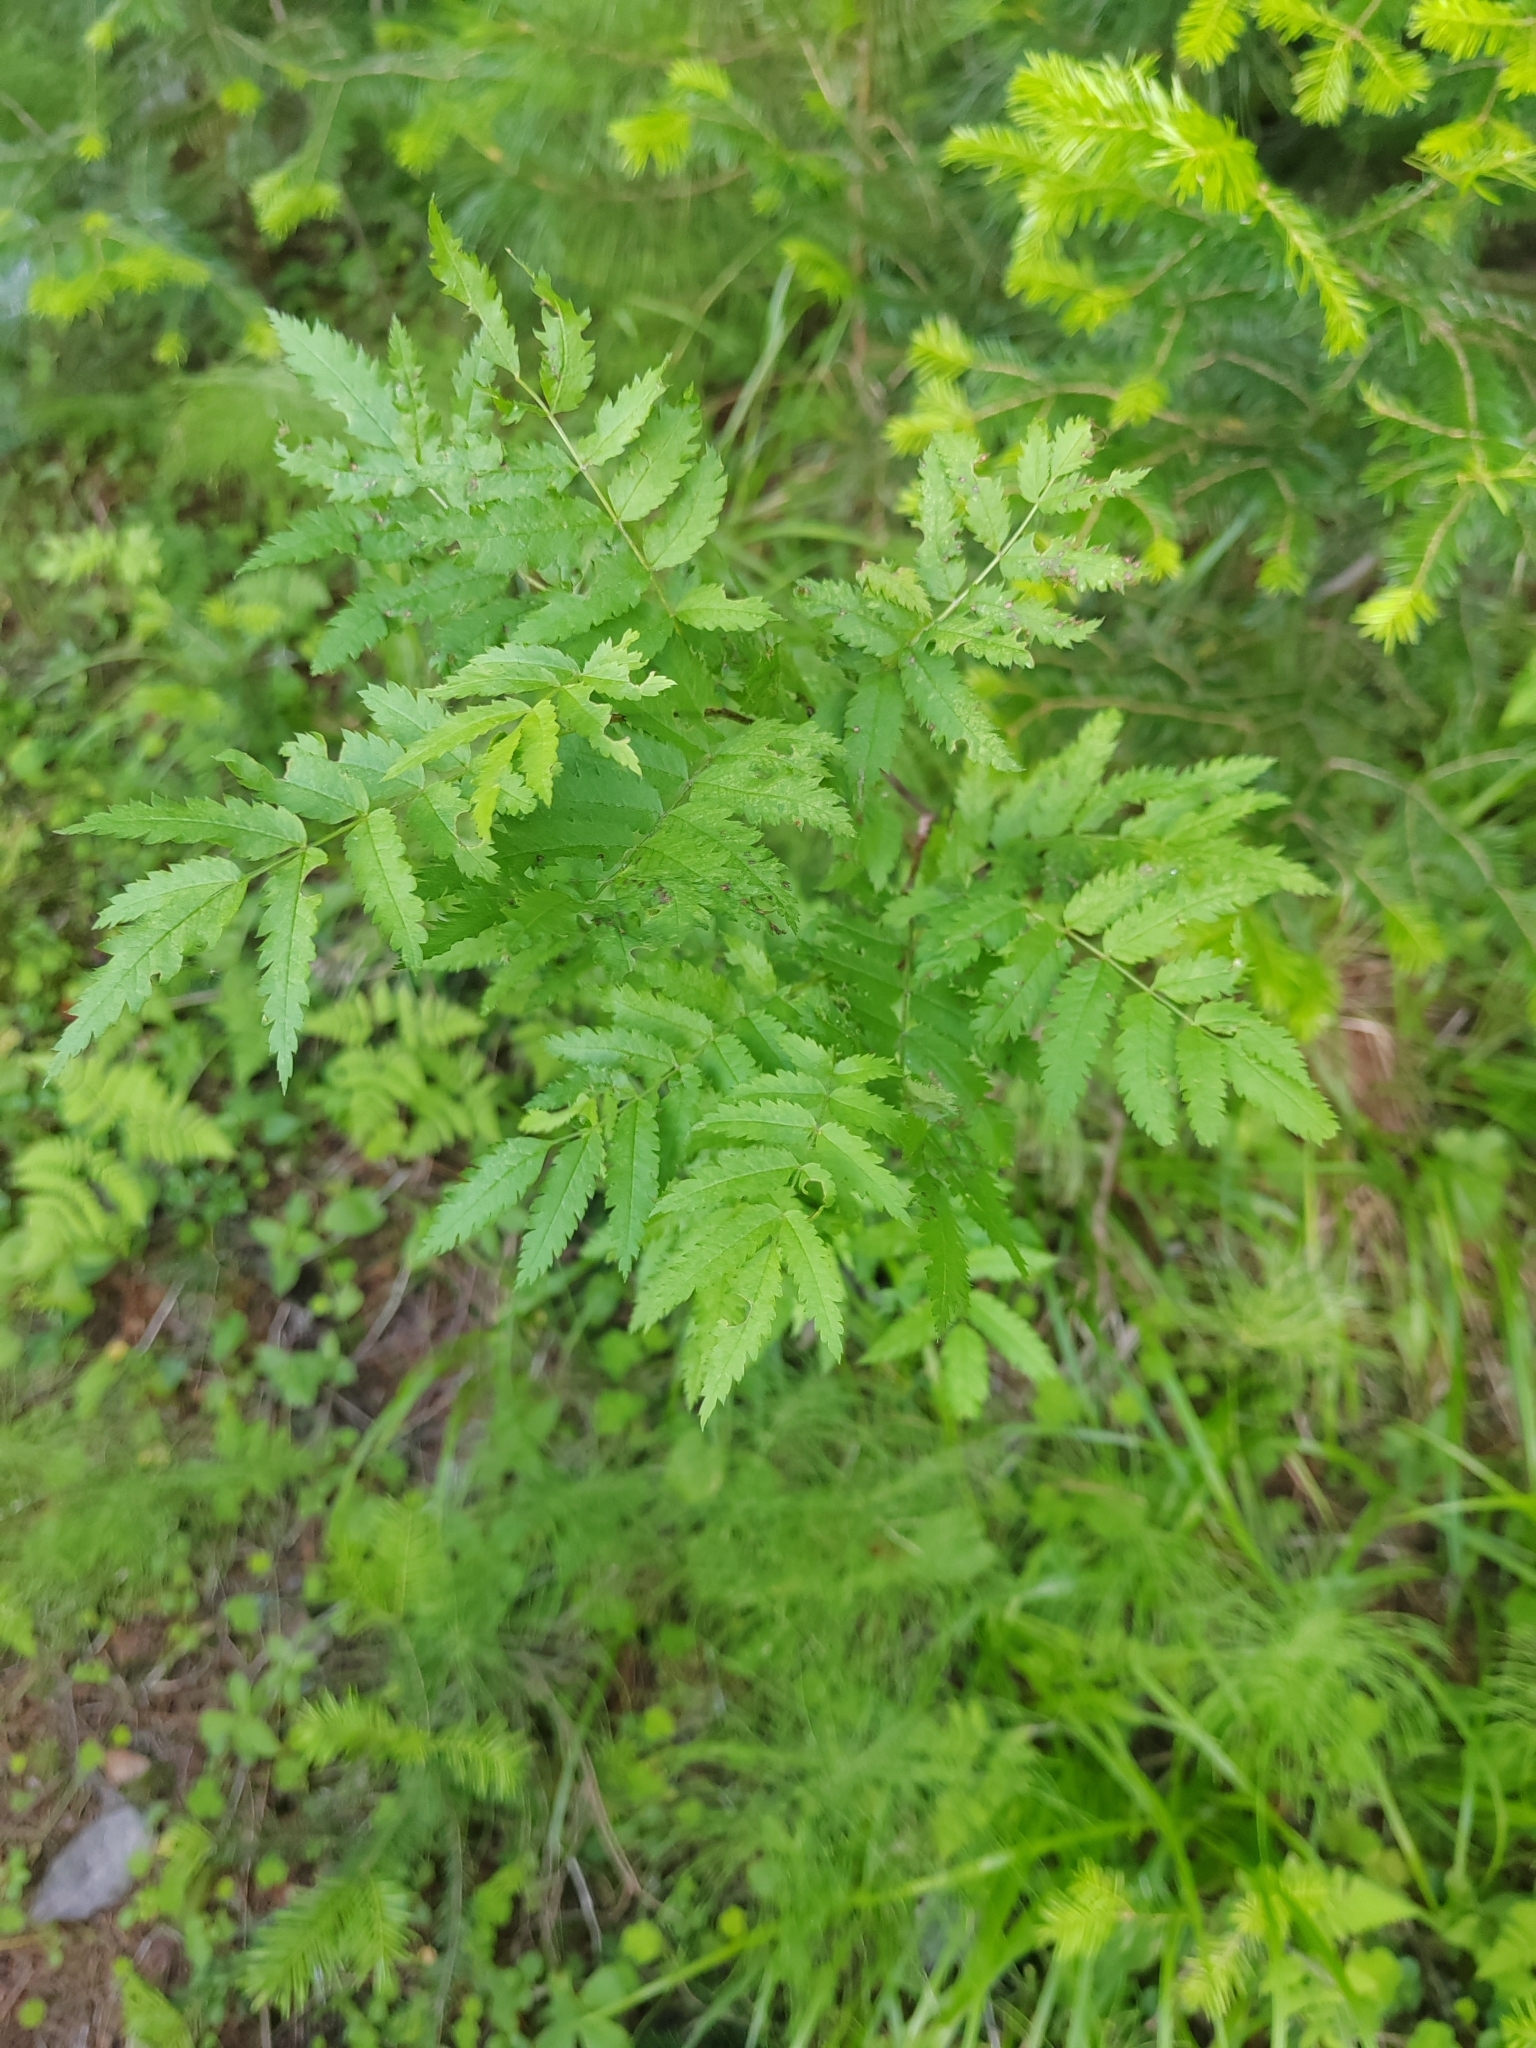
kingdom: Plantae
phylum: Tracheophyta
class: Magnoliopsida
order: Rosales
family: Rosaceae
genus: Sorbus
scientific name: Sorbus aucuparia
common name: Rowan
